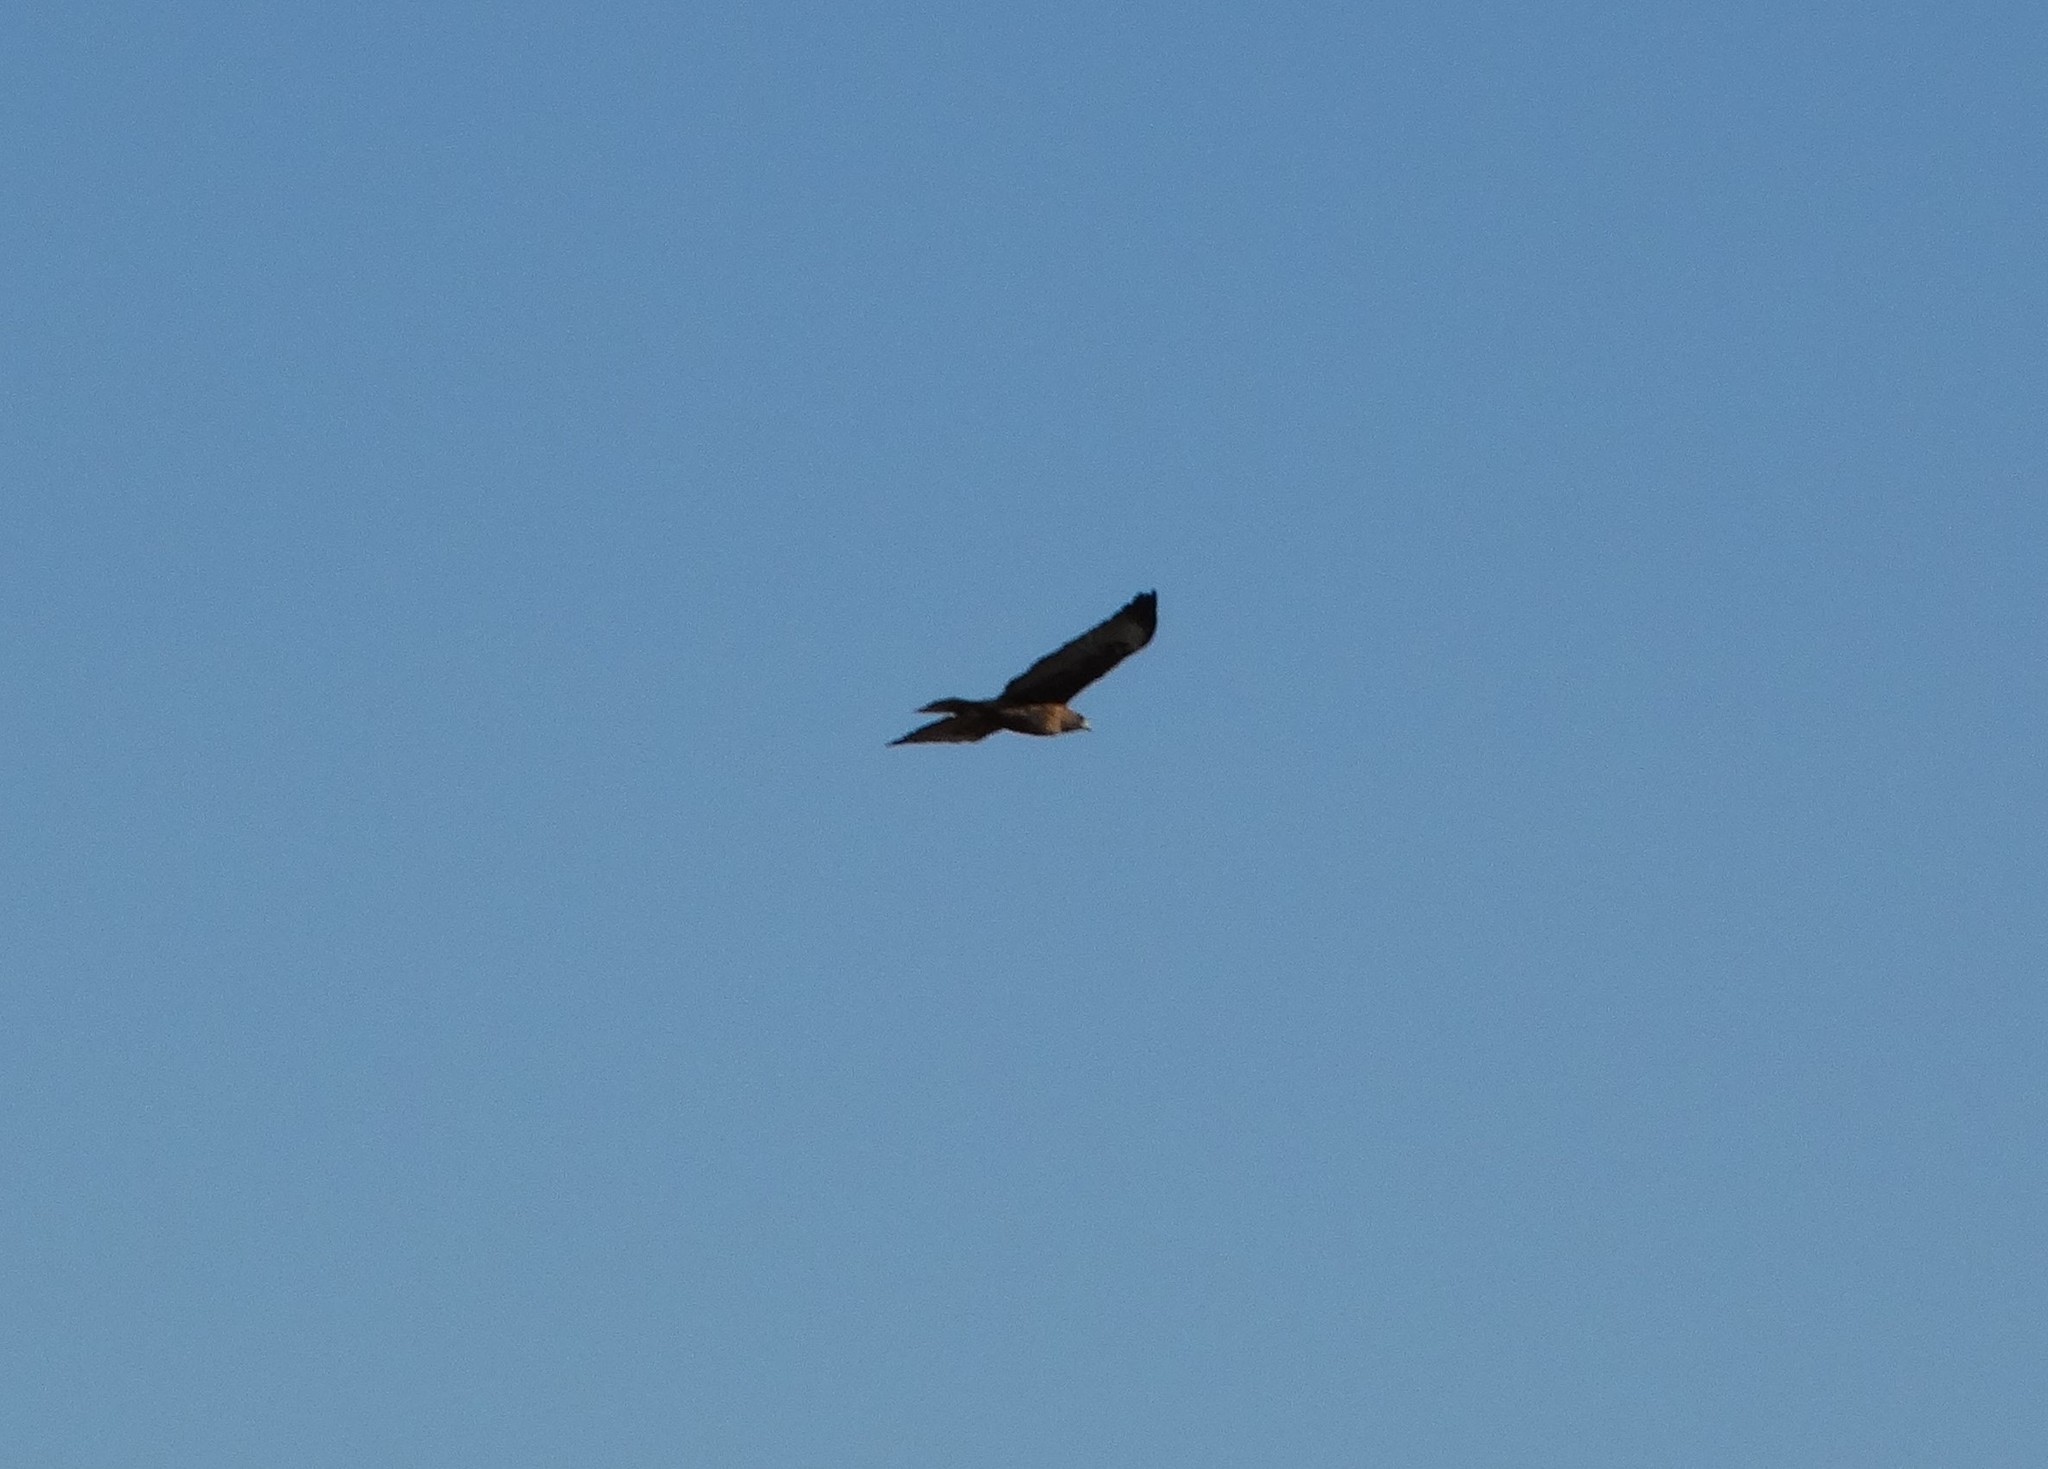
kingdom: Animalia
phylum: Chordata
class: Aves
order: Accipitriformes
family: Accipitridae
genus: Buteo
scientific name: Buteo jamaicensis
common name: Red-tailed hawk
